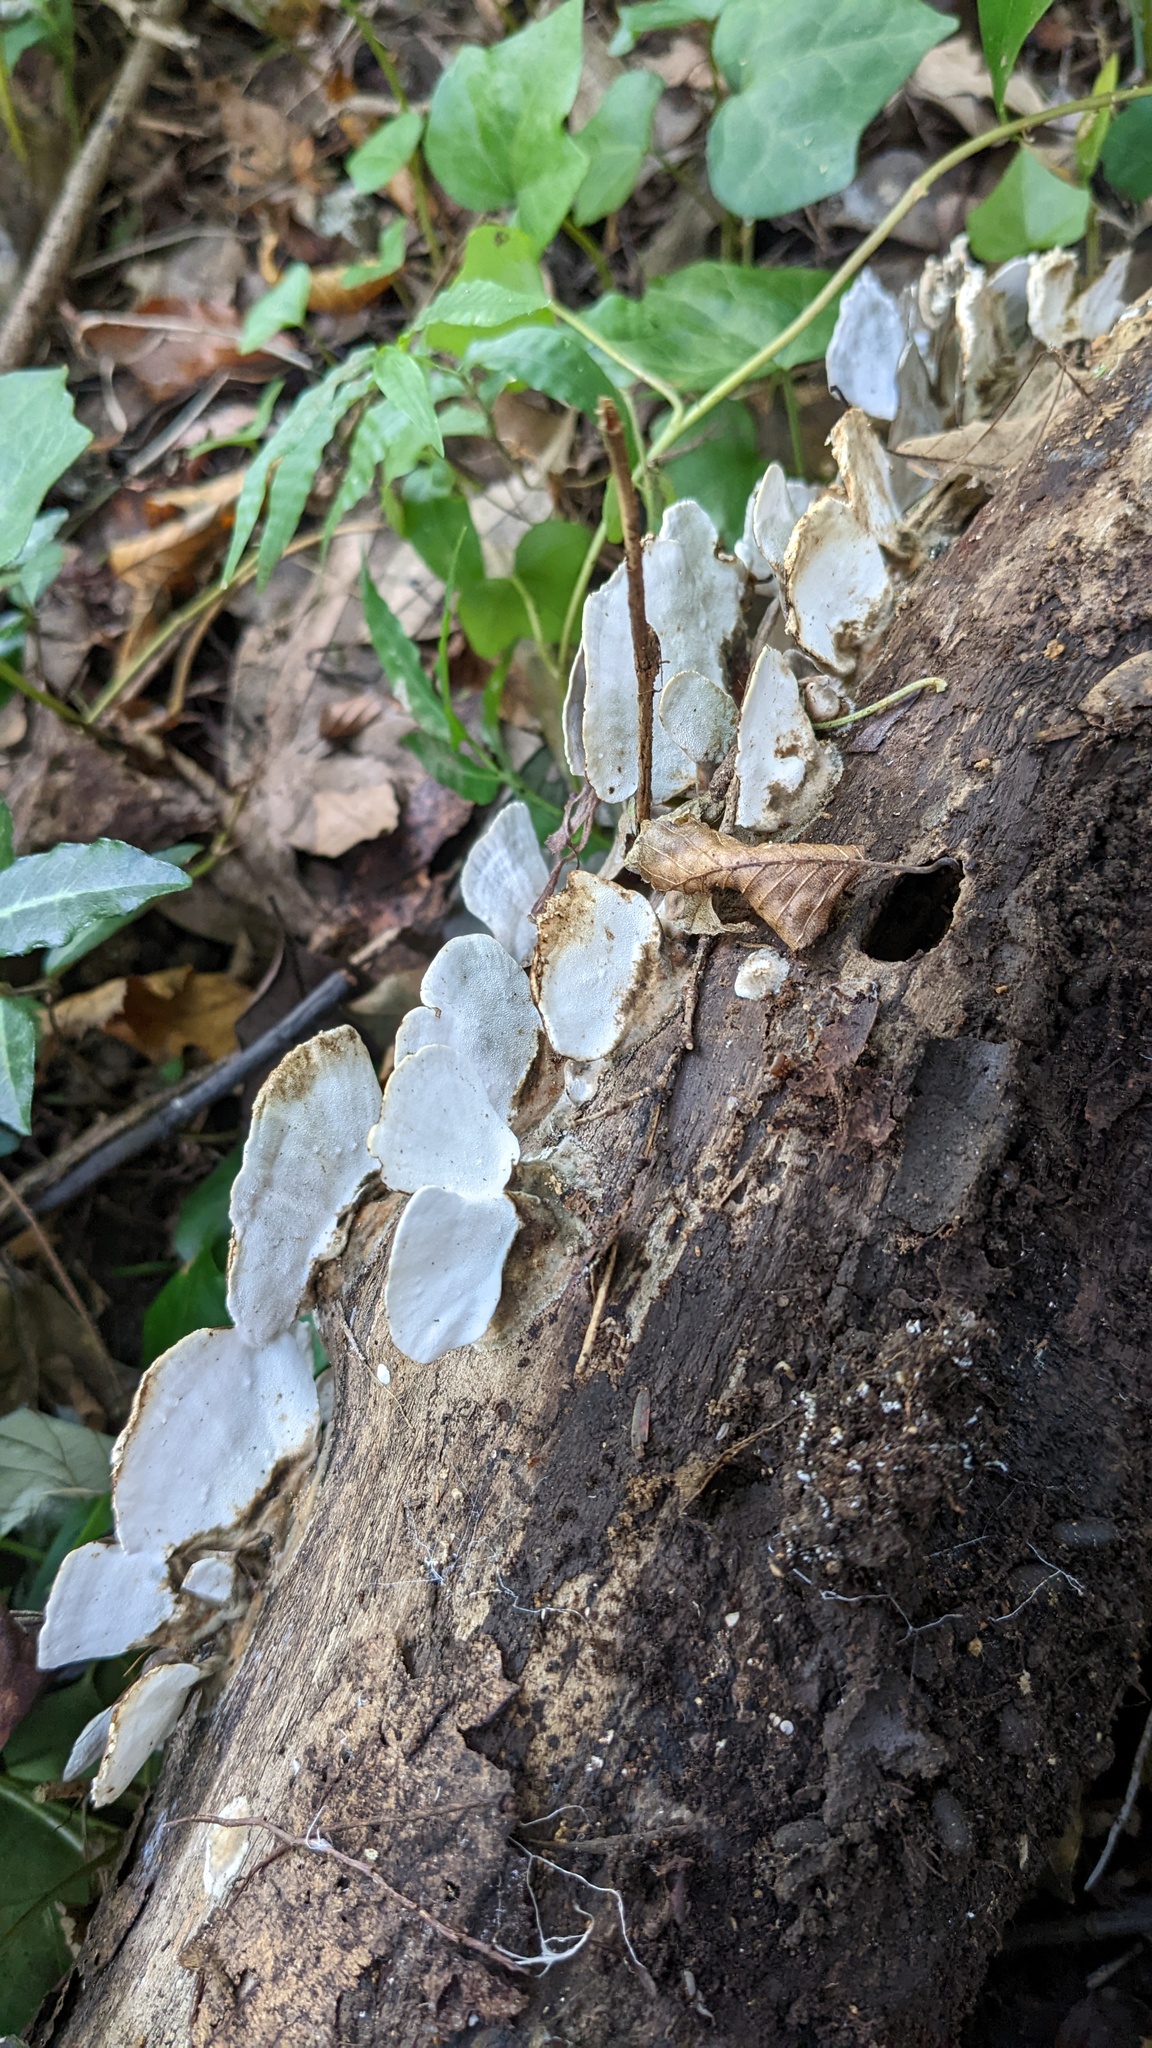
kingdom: Fungi
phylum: Basidiomycota
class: Agaricomycetes
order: Polyporales
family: Polyporaceae
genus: Trametes
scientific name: Trametes versicolor
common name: Turkeytail
